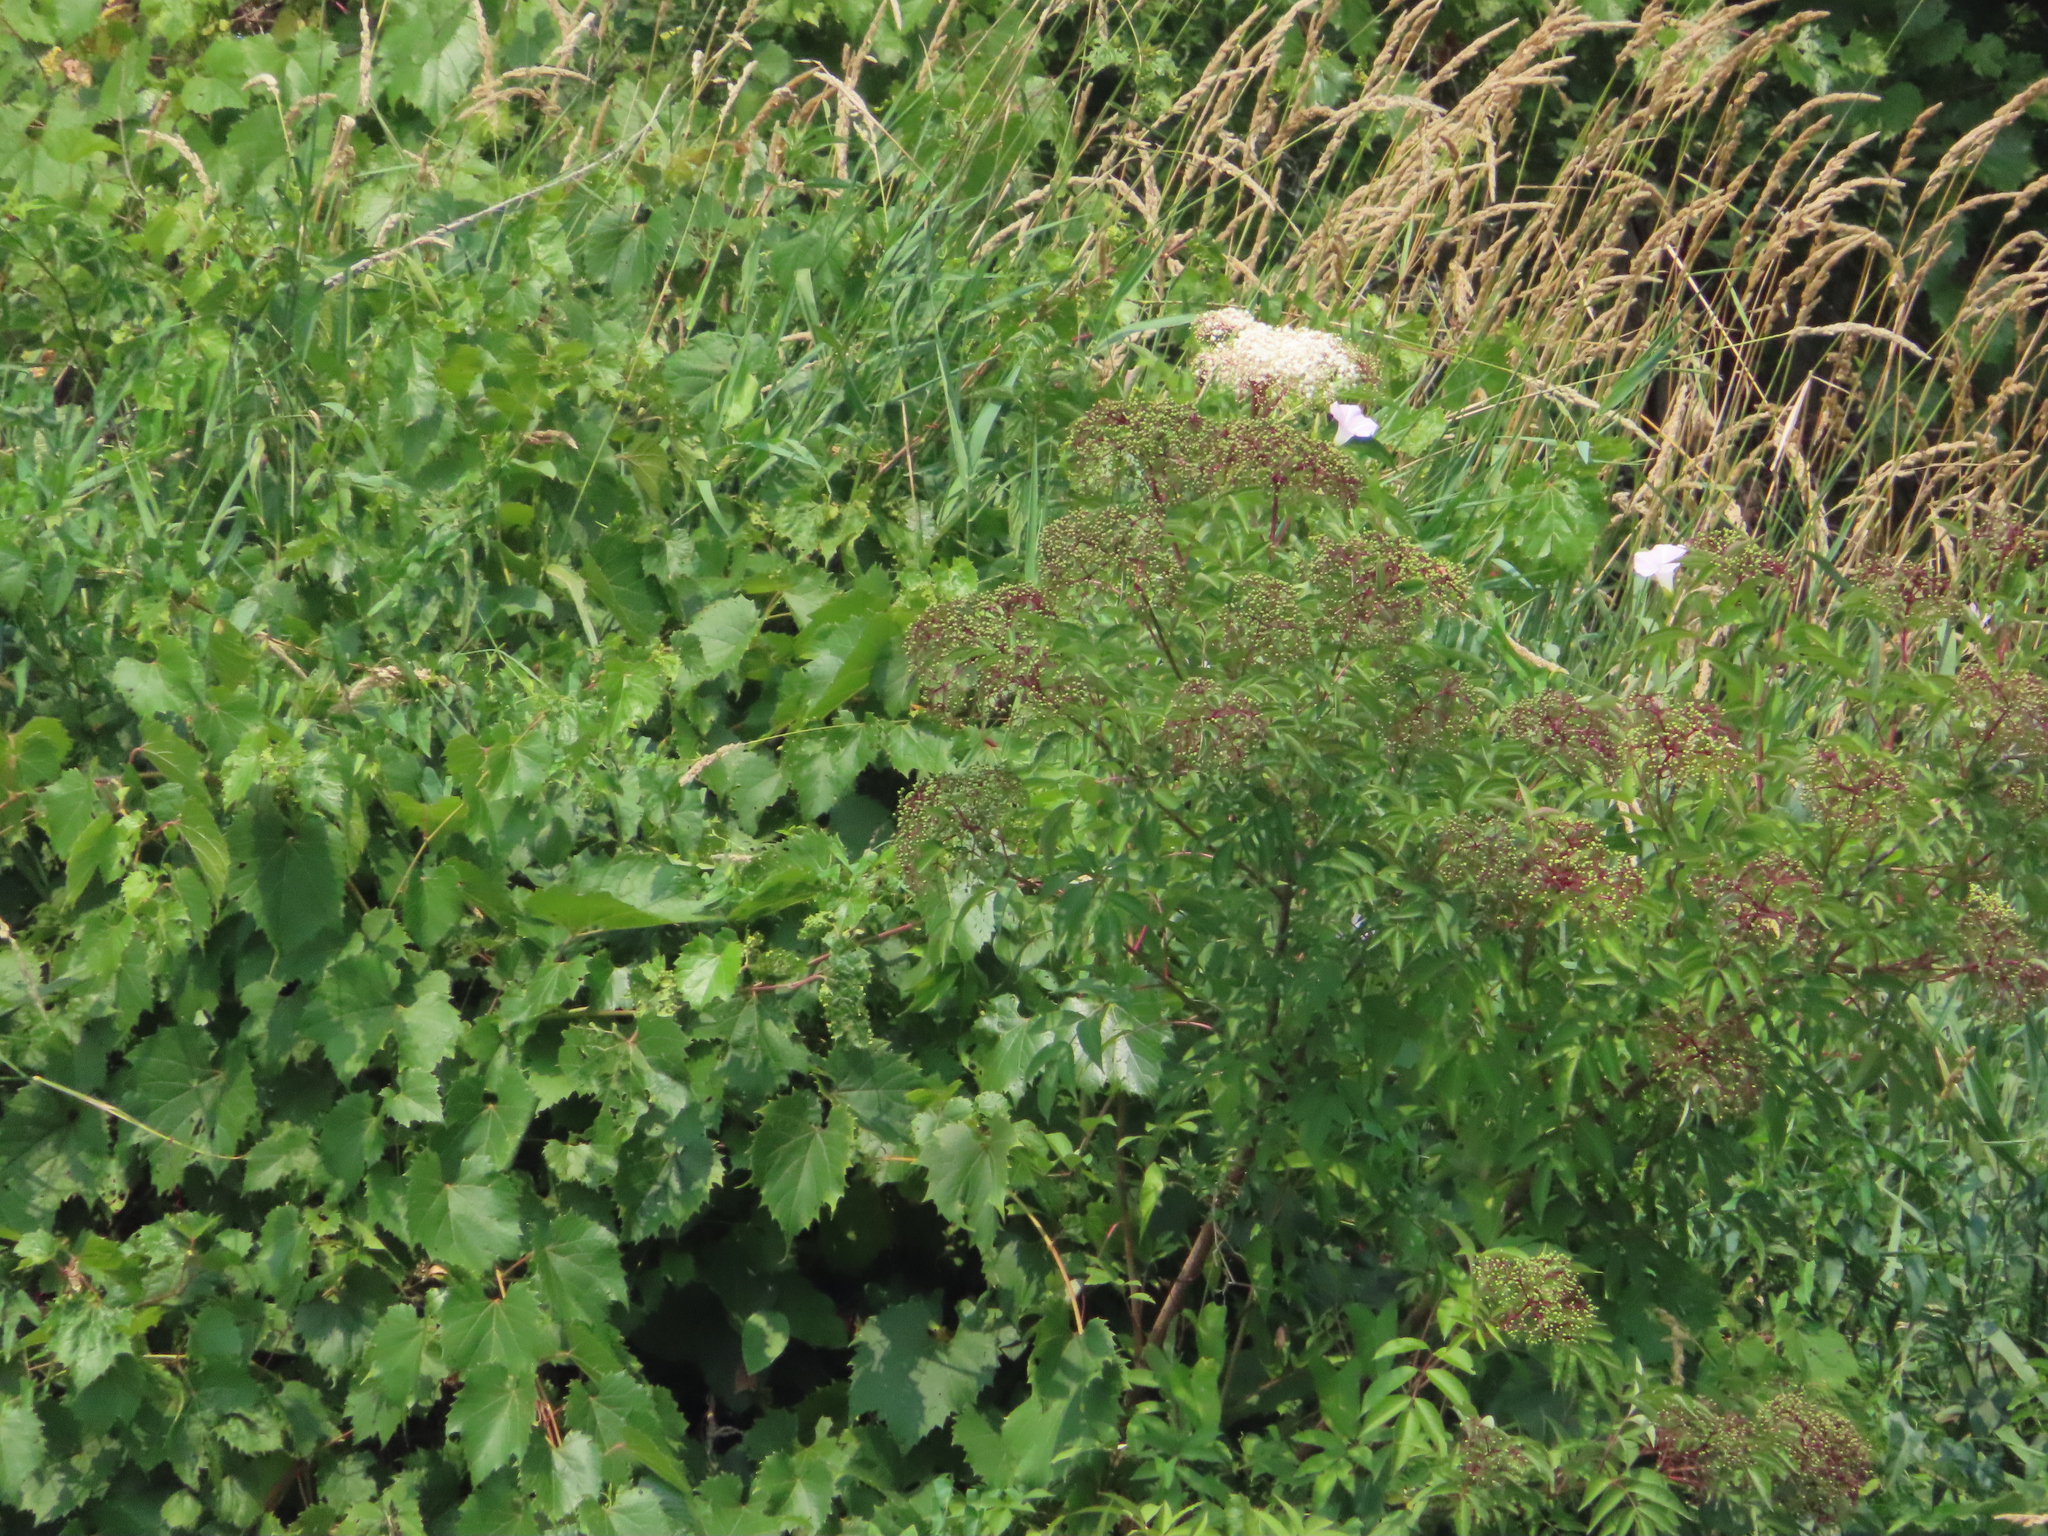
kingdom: Plantae
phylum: Tracheophyta
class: Magnoliopsida
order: Dipsacales
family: Viburnaceae
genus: Sambucus
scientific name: Sambucus canadensis
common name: American elder
